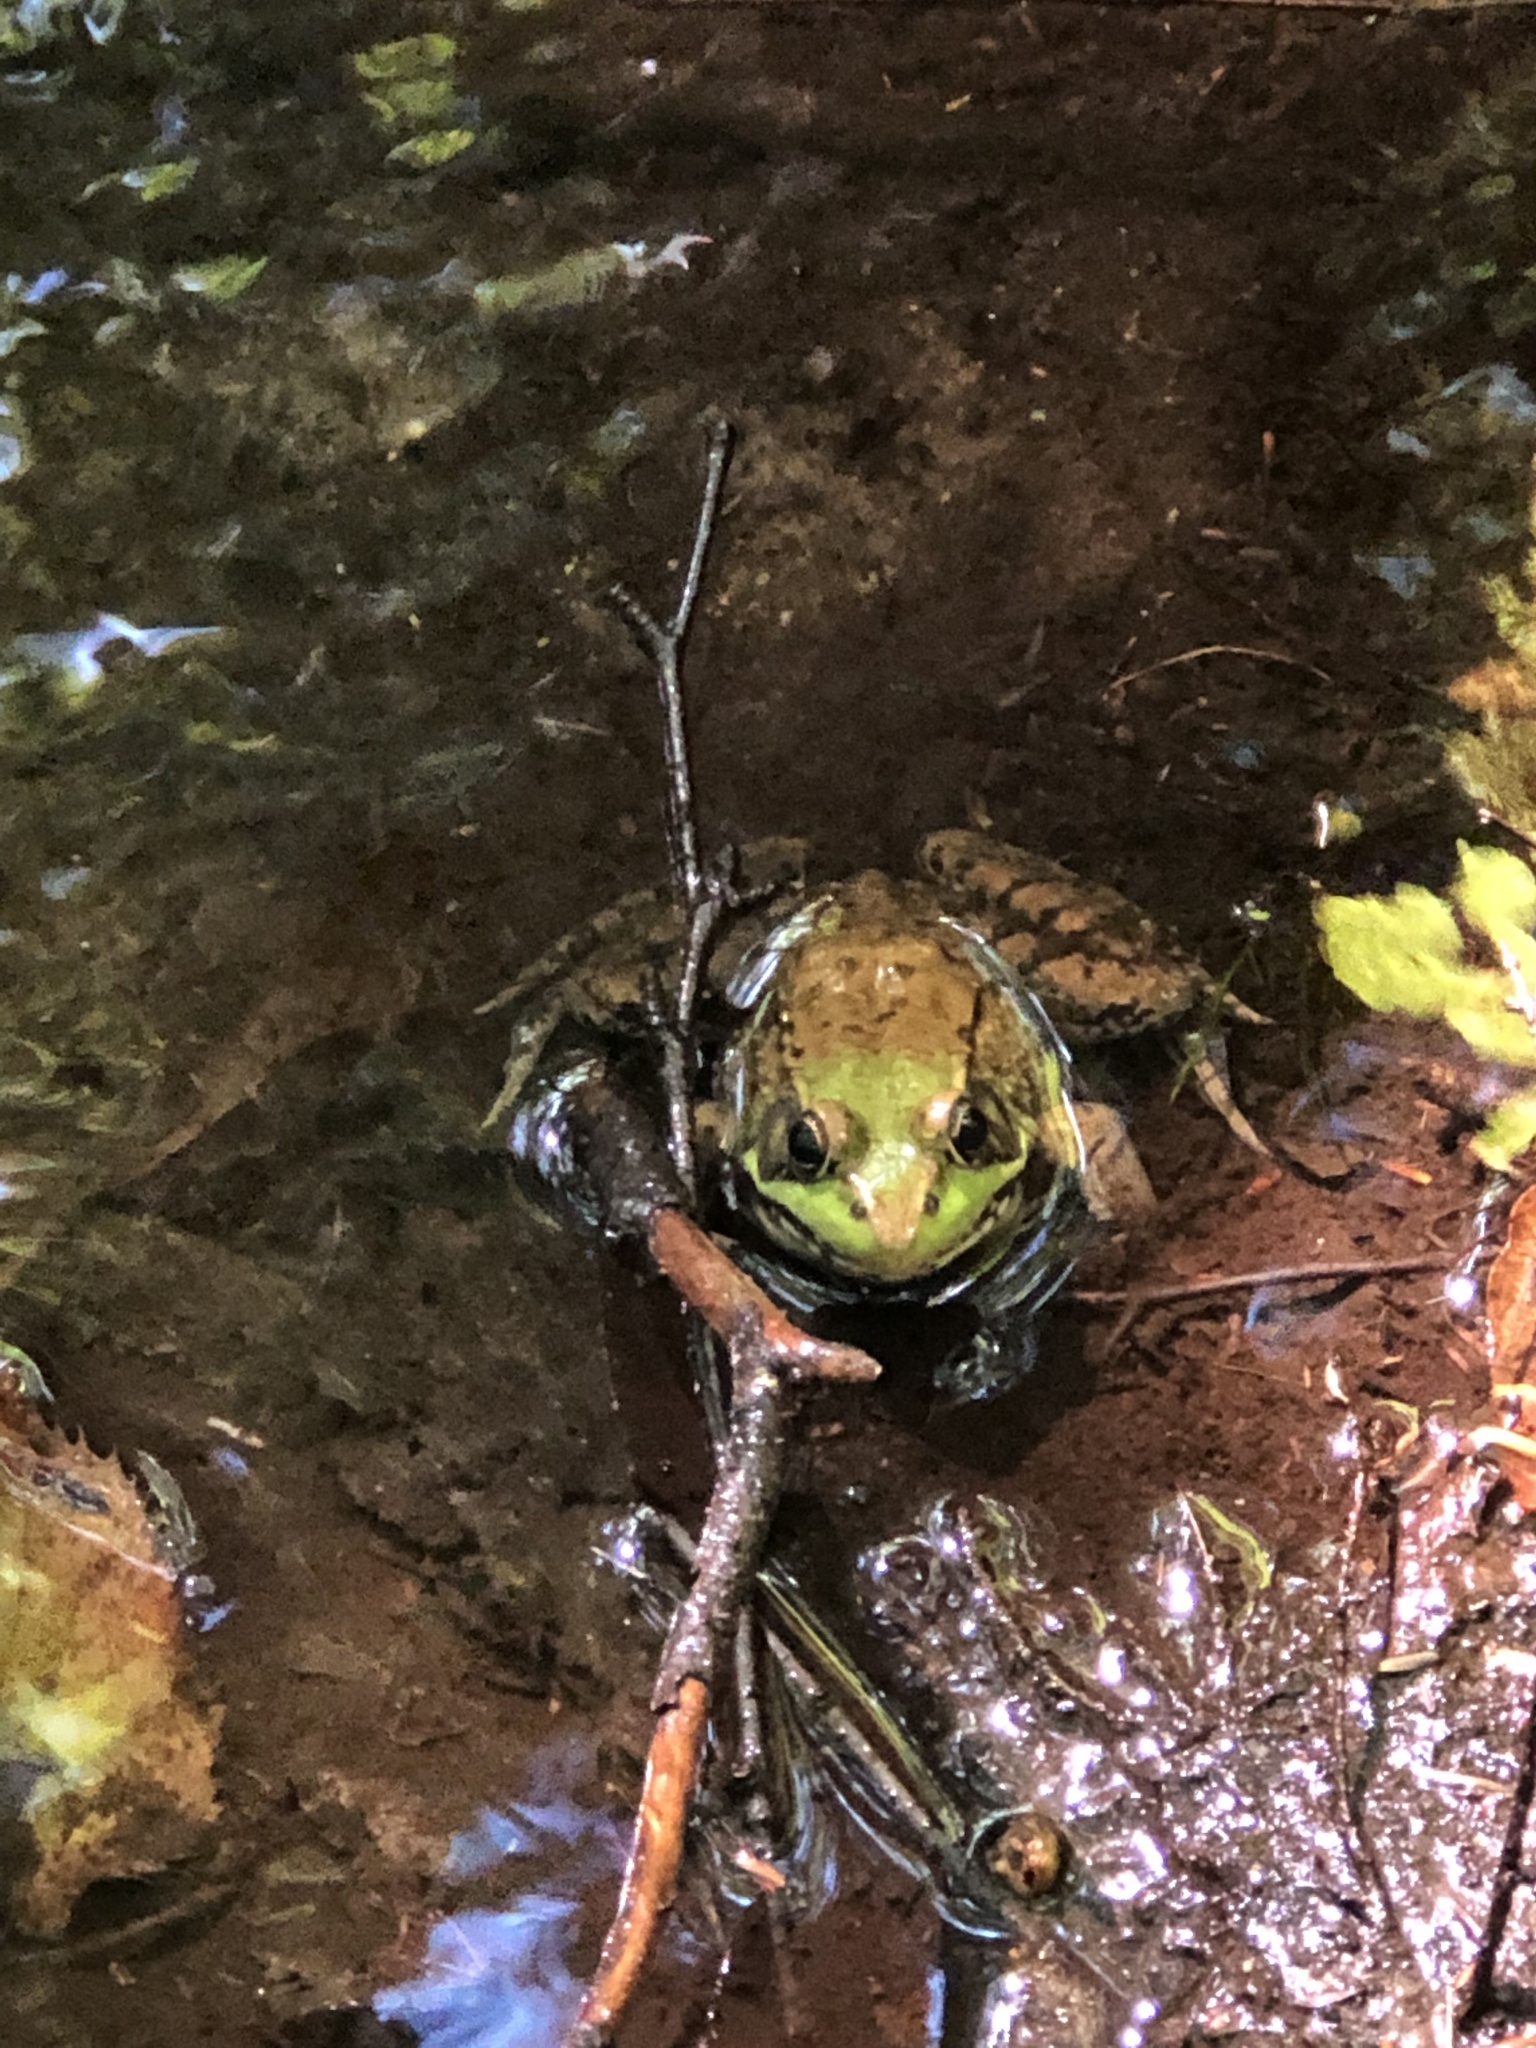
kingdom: Animalia
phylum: Chordata
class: Amphibia
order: Anura
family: Ranidae
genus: Lithobates
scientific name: Lithobates clamitans
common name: Green frog
